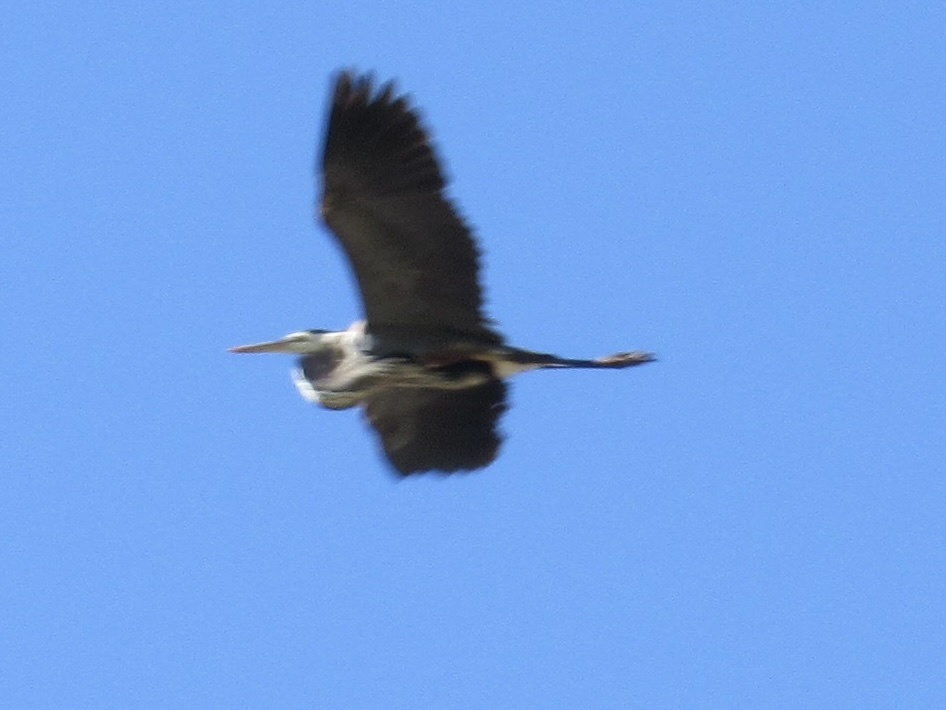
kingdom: Animalia
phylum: Chordata
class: Aves
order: Pelecaniformes
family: Ardeidae
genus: Ardea
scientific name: Ardea herodias
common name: Great blue heron
